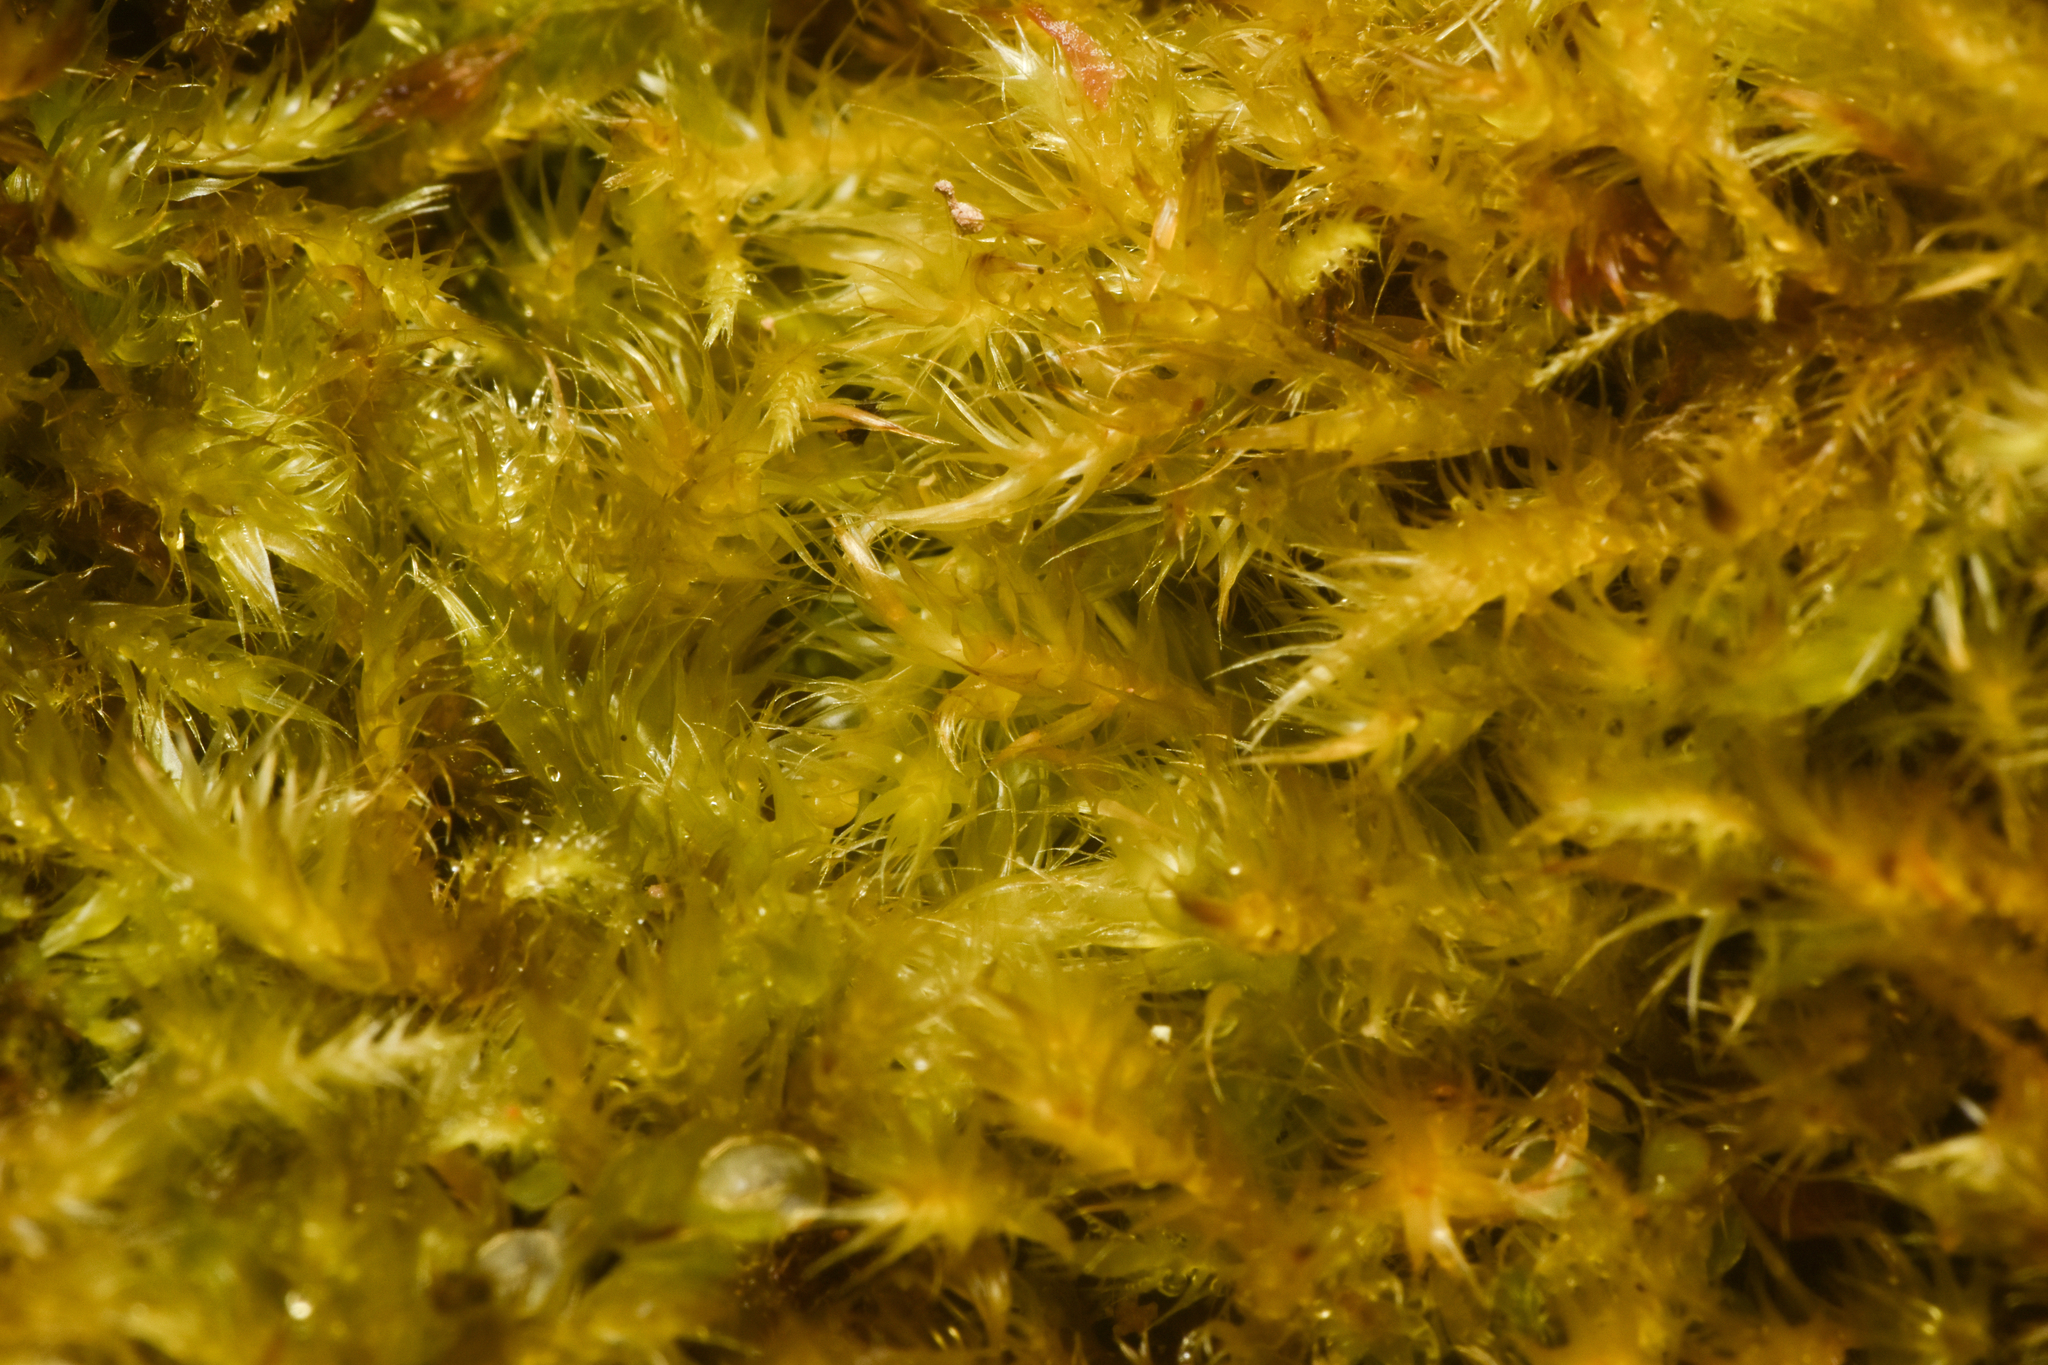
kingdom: Plantae
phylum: Bryophyta
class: Bryopsida
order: Hypnales
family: Pylaisiaceae
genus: Aquilonium
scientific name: Aquilonium adscendens
